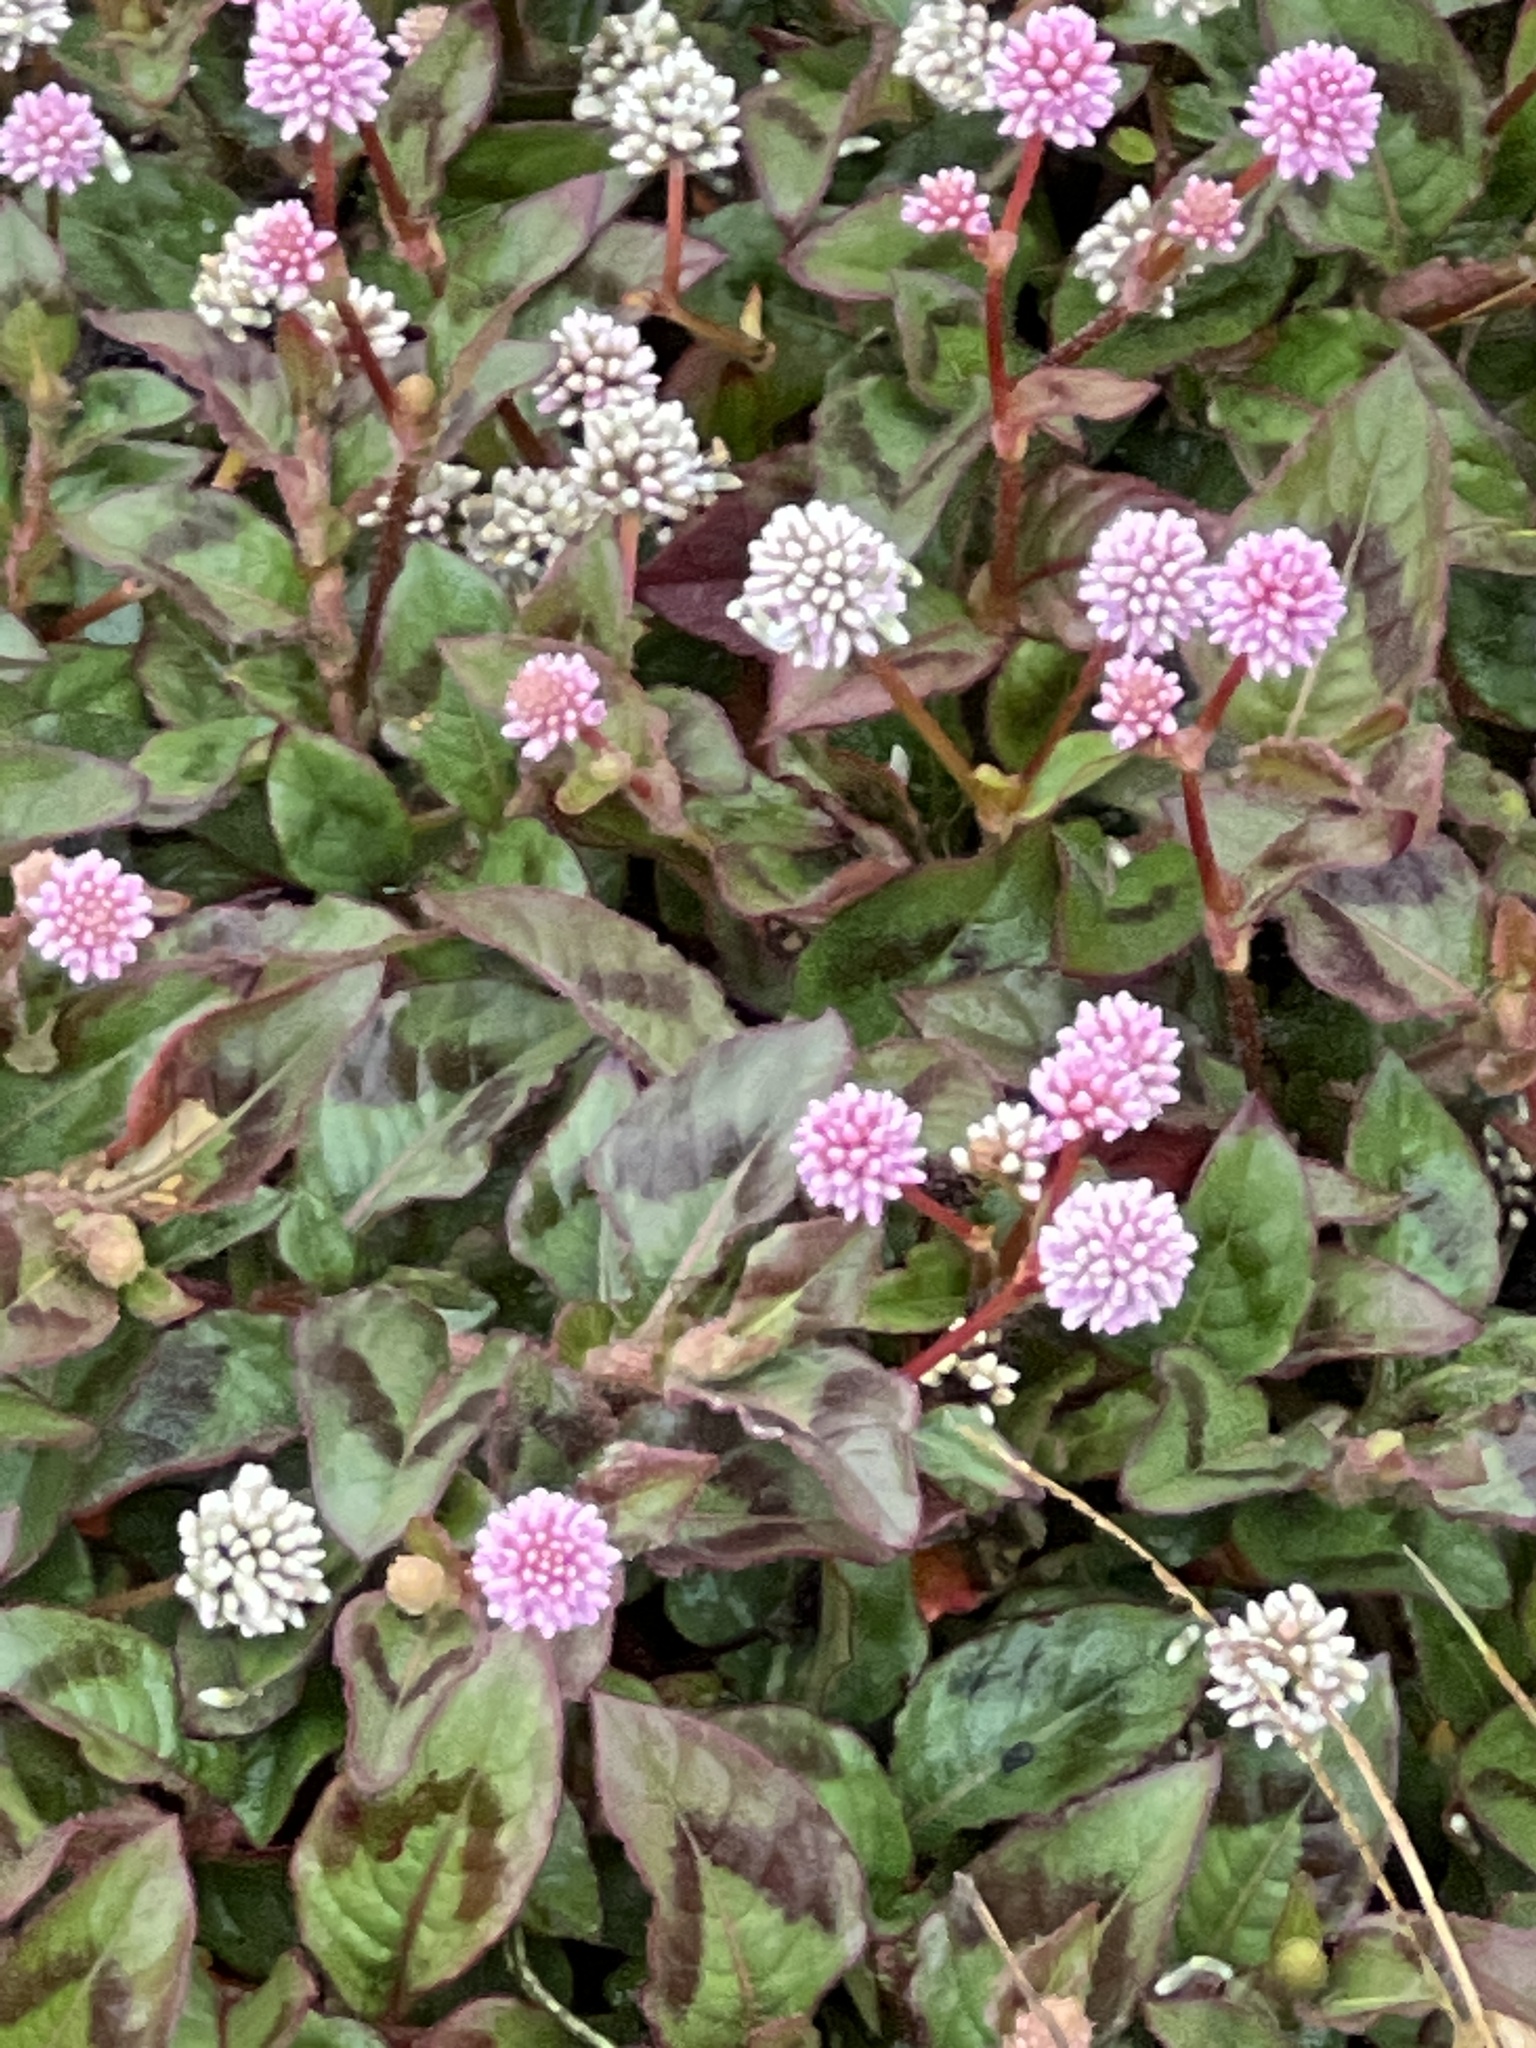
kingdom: Plantae
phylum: Tracheophyta
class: Magnoliopsida
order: Caryophyllales
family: Polygonaceae
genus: Persicaria
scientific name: Persicaria capitata
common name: Pinkhead smartweed
